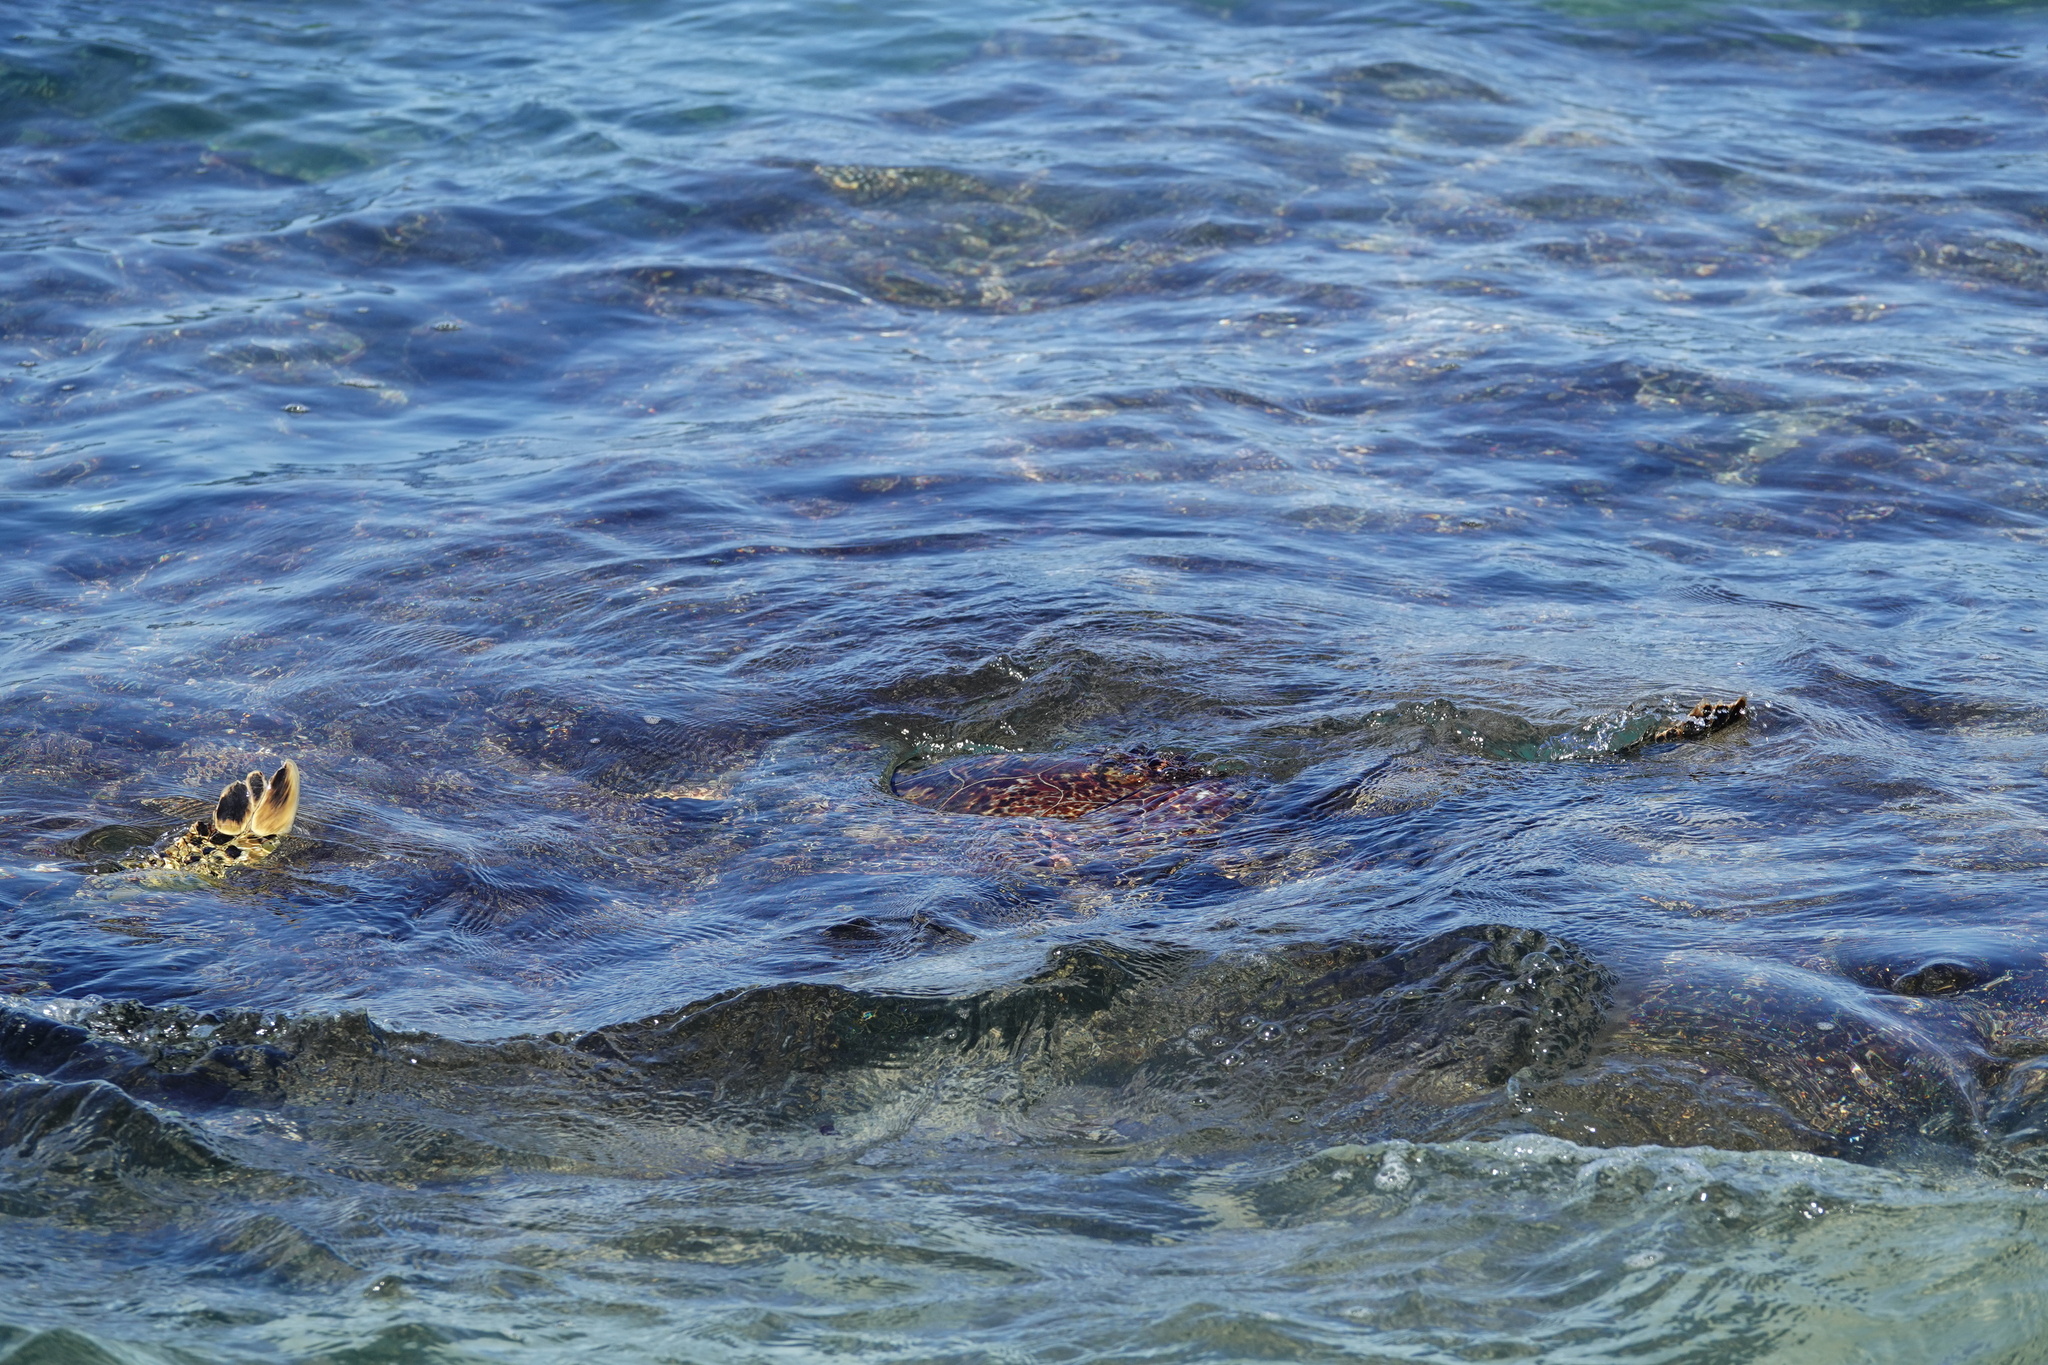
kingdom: Animalia
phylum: Chordata
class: Testudines
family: Cheloniidae
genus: Chelonia
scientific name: Chelonia mydas
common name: Green turtle
